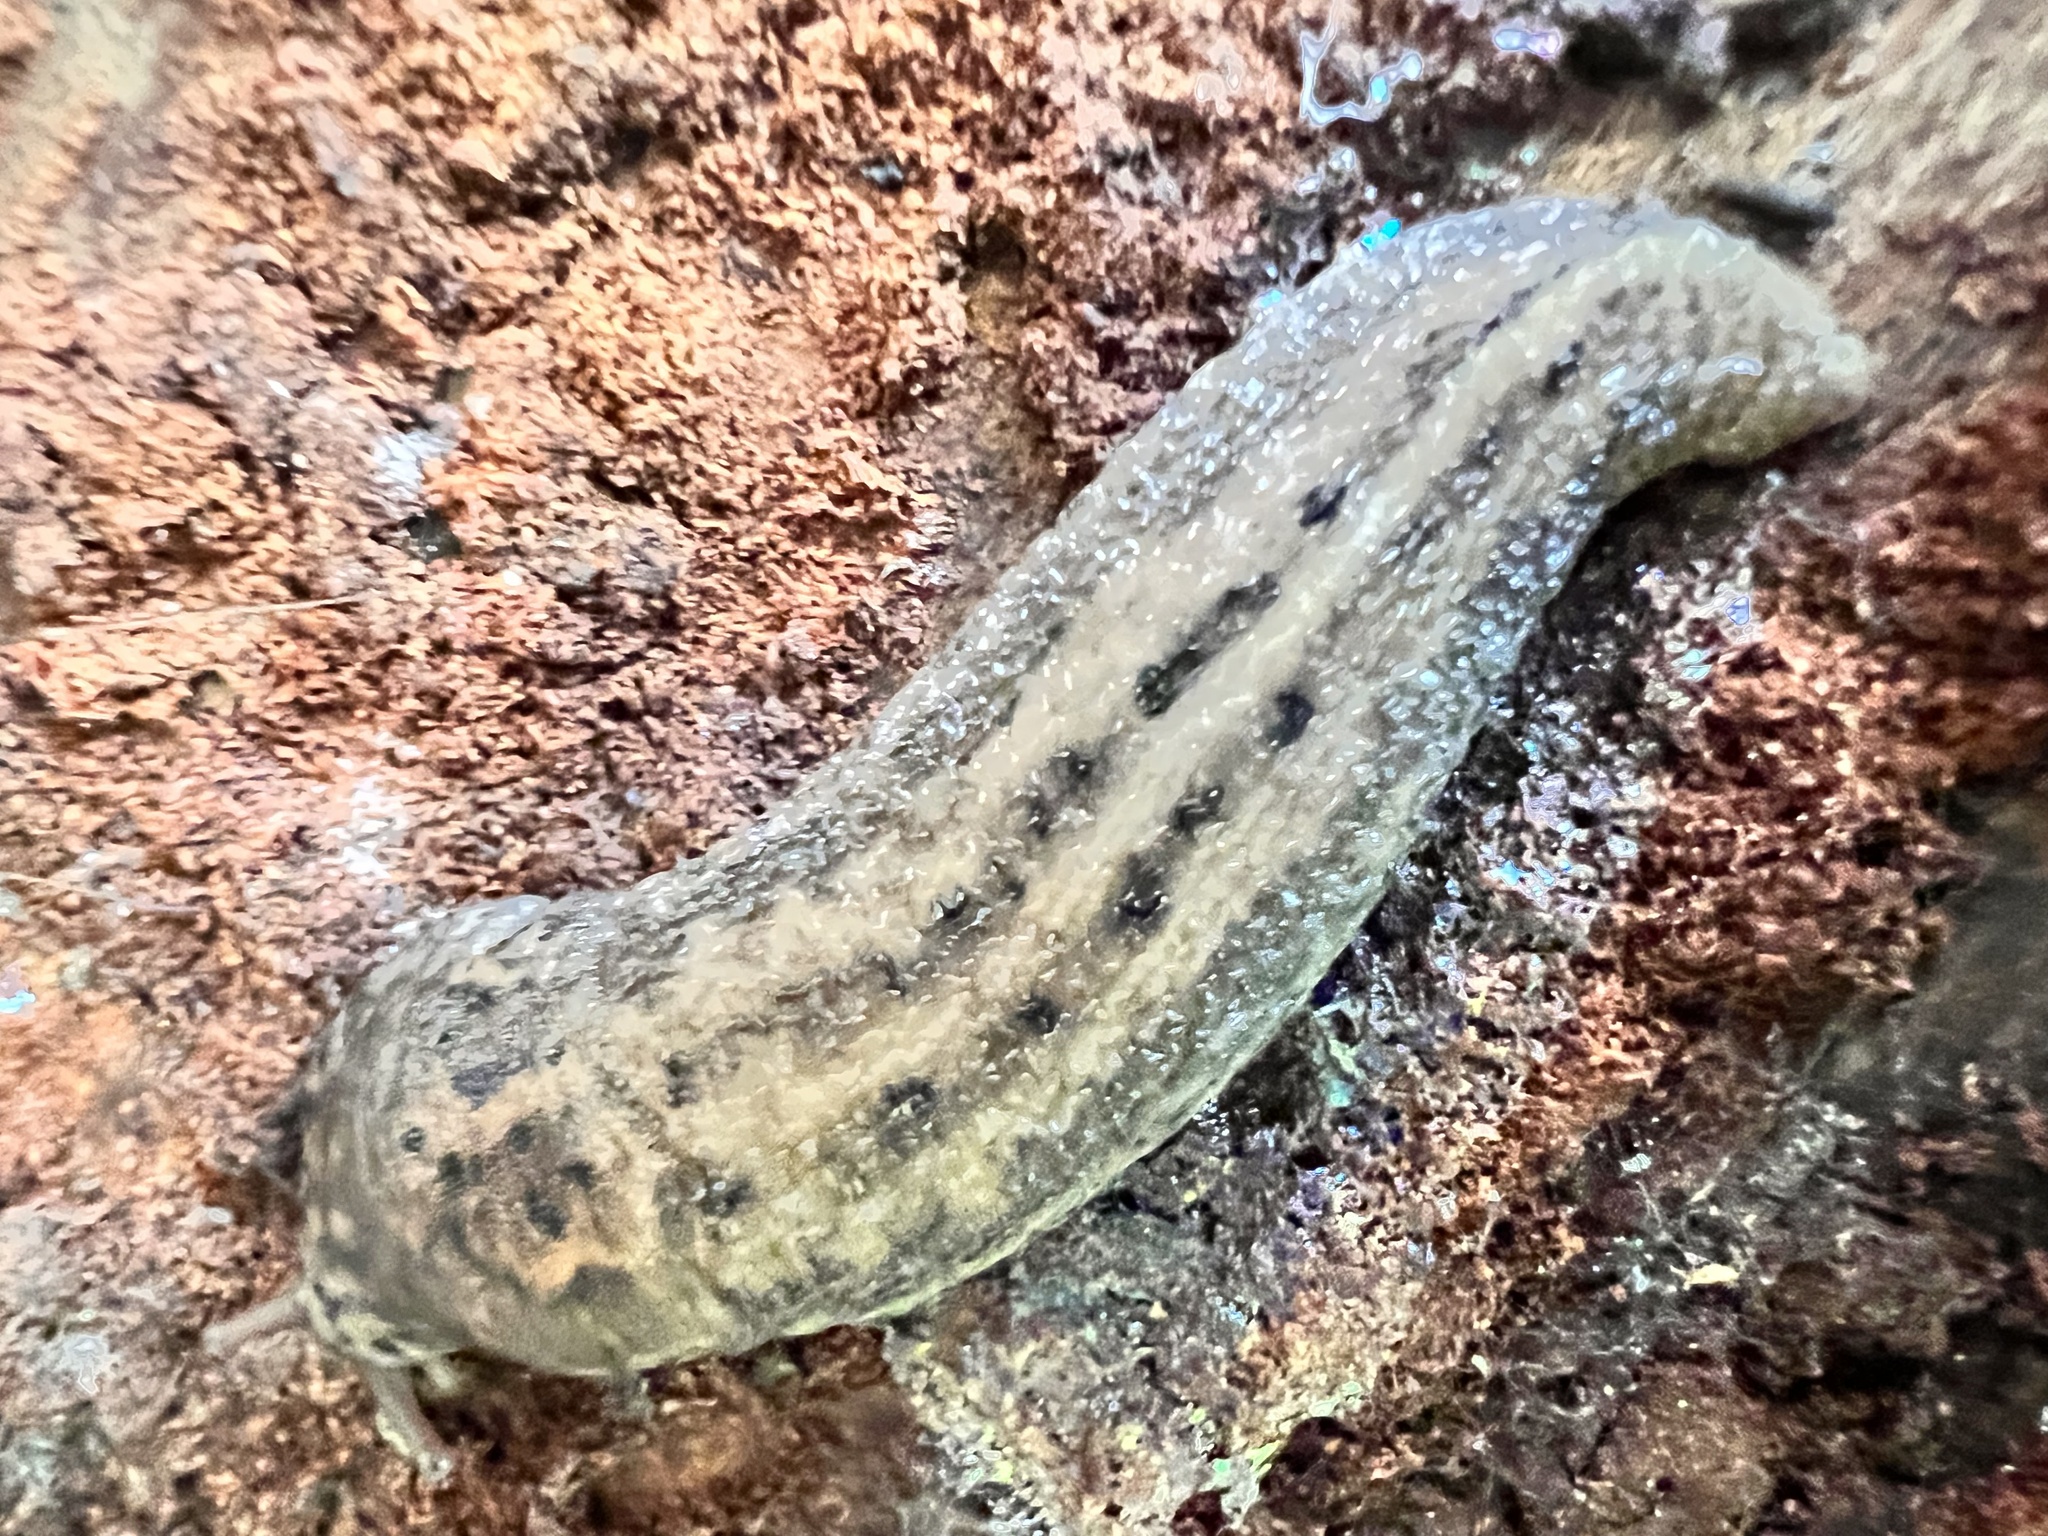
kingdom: Animalia
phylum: Mollusca
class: Gastropoda
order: Stylommatophora
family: Limacidae
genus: Limax
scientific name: Limax maximus
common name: Great grey slug
